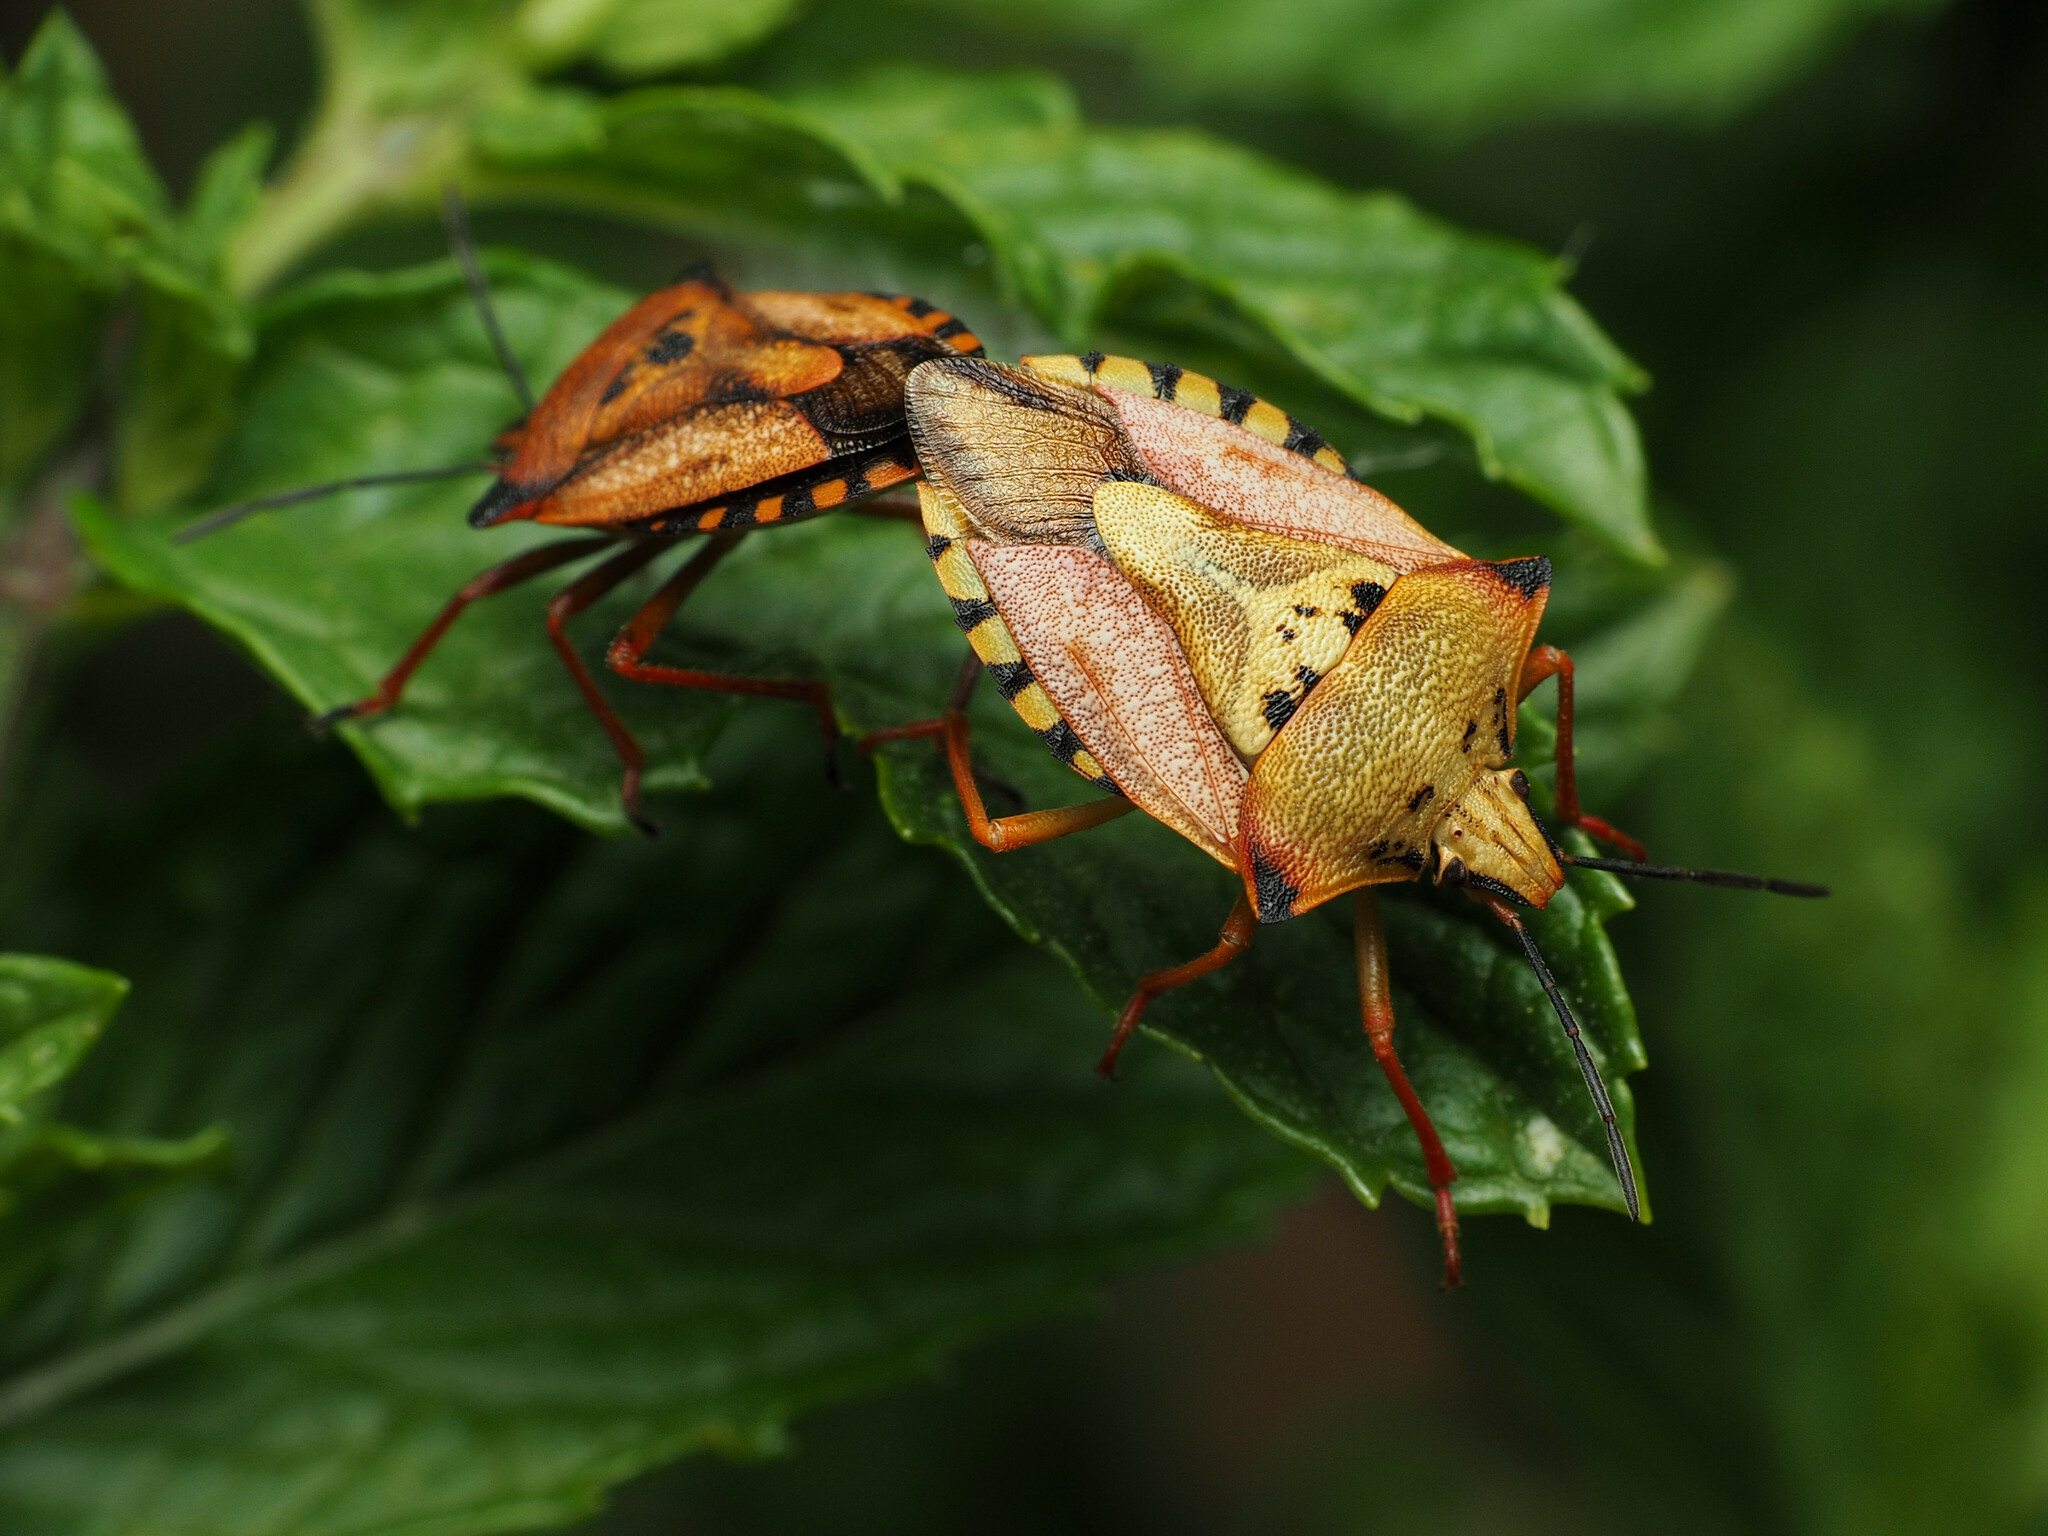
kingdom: Animalia
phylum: Arthropoda
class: Insecta
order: Hemiptera
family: Pentatomidae
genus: Carpocoris
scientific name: Carpocoris mediterraneus
